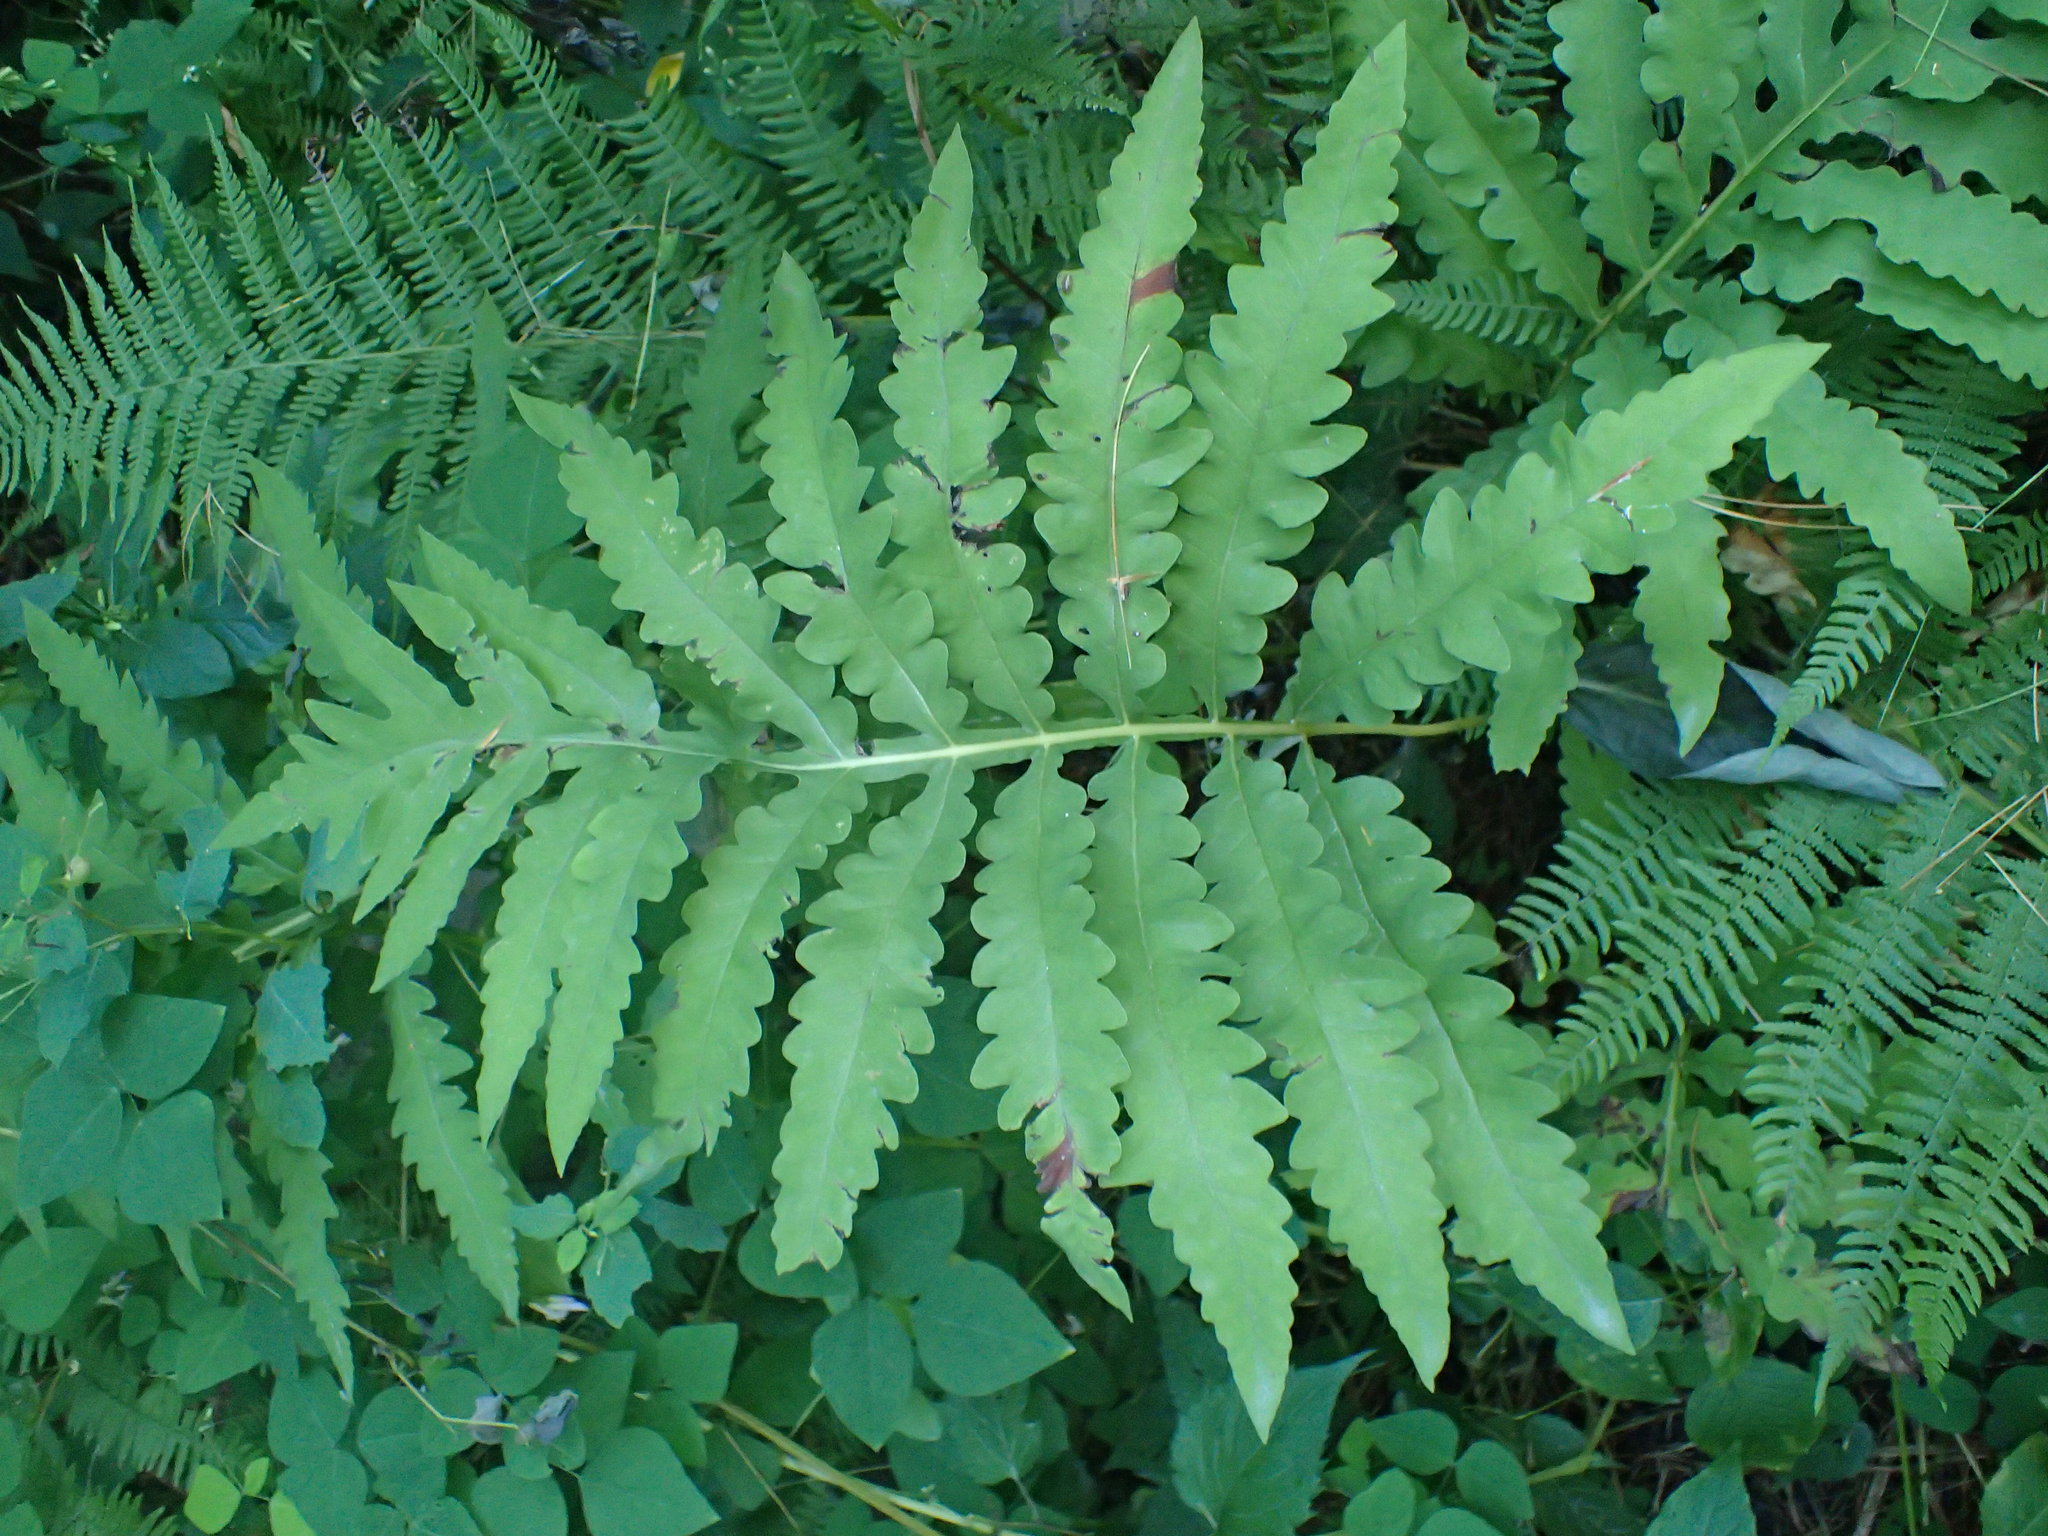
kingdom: Plantae
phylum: Tracheophyta
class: Polypodiopsida
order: Polypodiales
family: Onocleaceae
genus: Onoclea
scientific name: Onoclea sensibilis
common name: Sensitive fern
